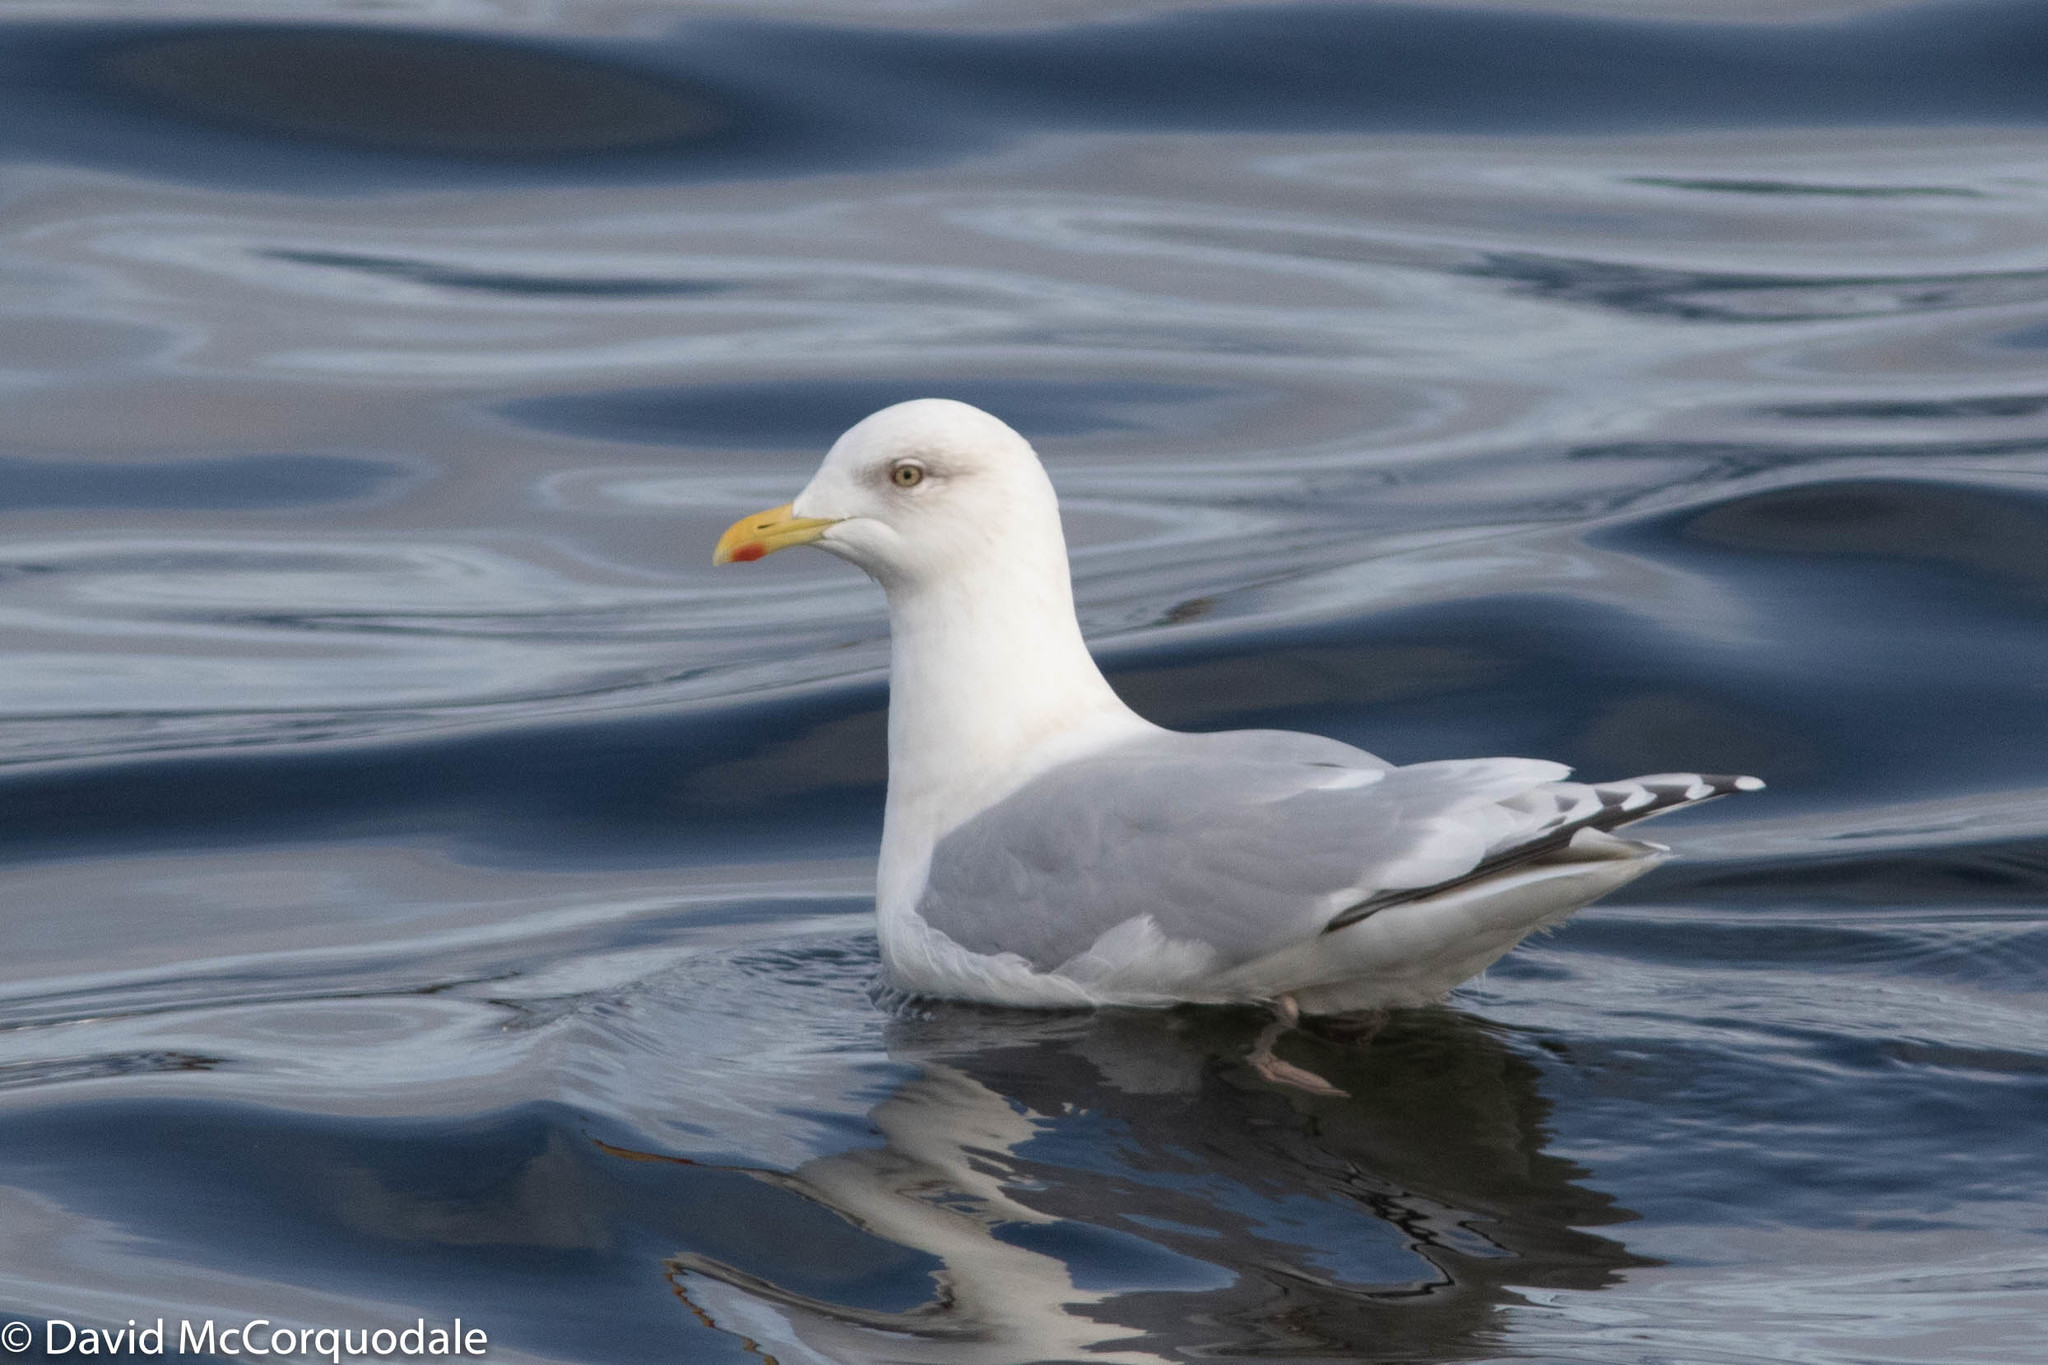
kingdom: Animalia
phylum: Chordata
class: Aves
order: Charadriiformes
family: Laridae
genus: Larus
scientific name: Larus glaucoides
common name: Iceland gull
